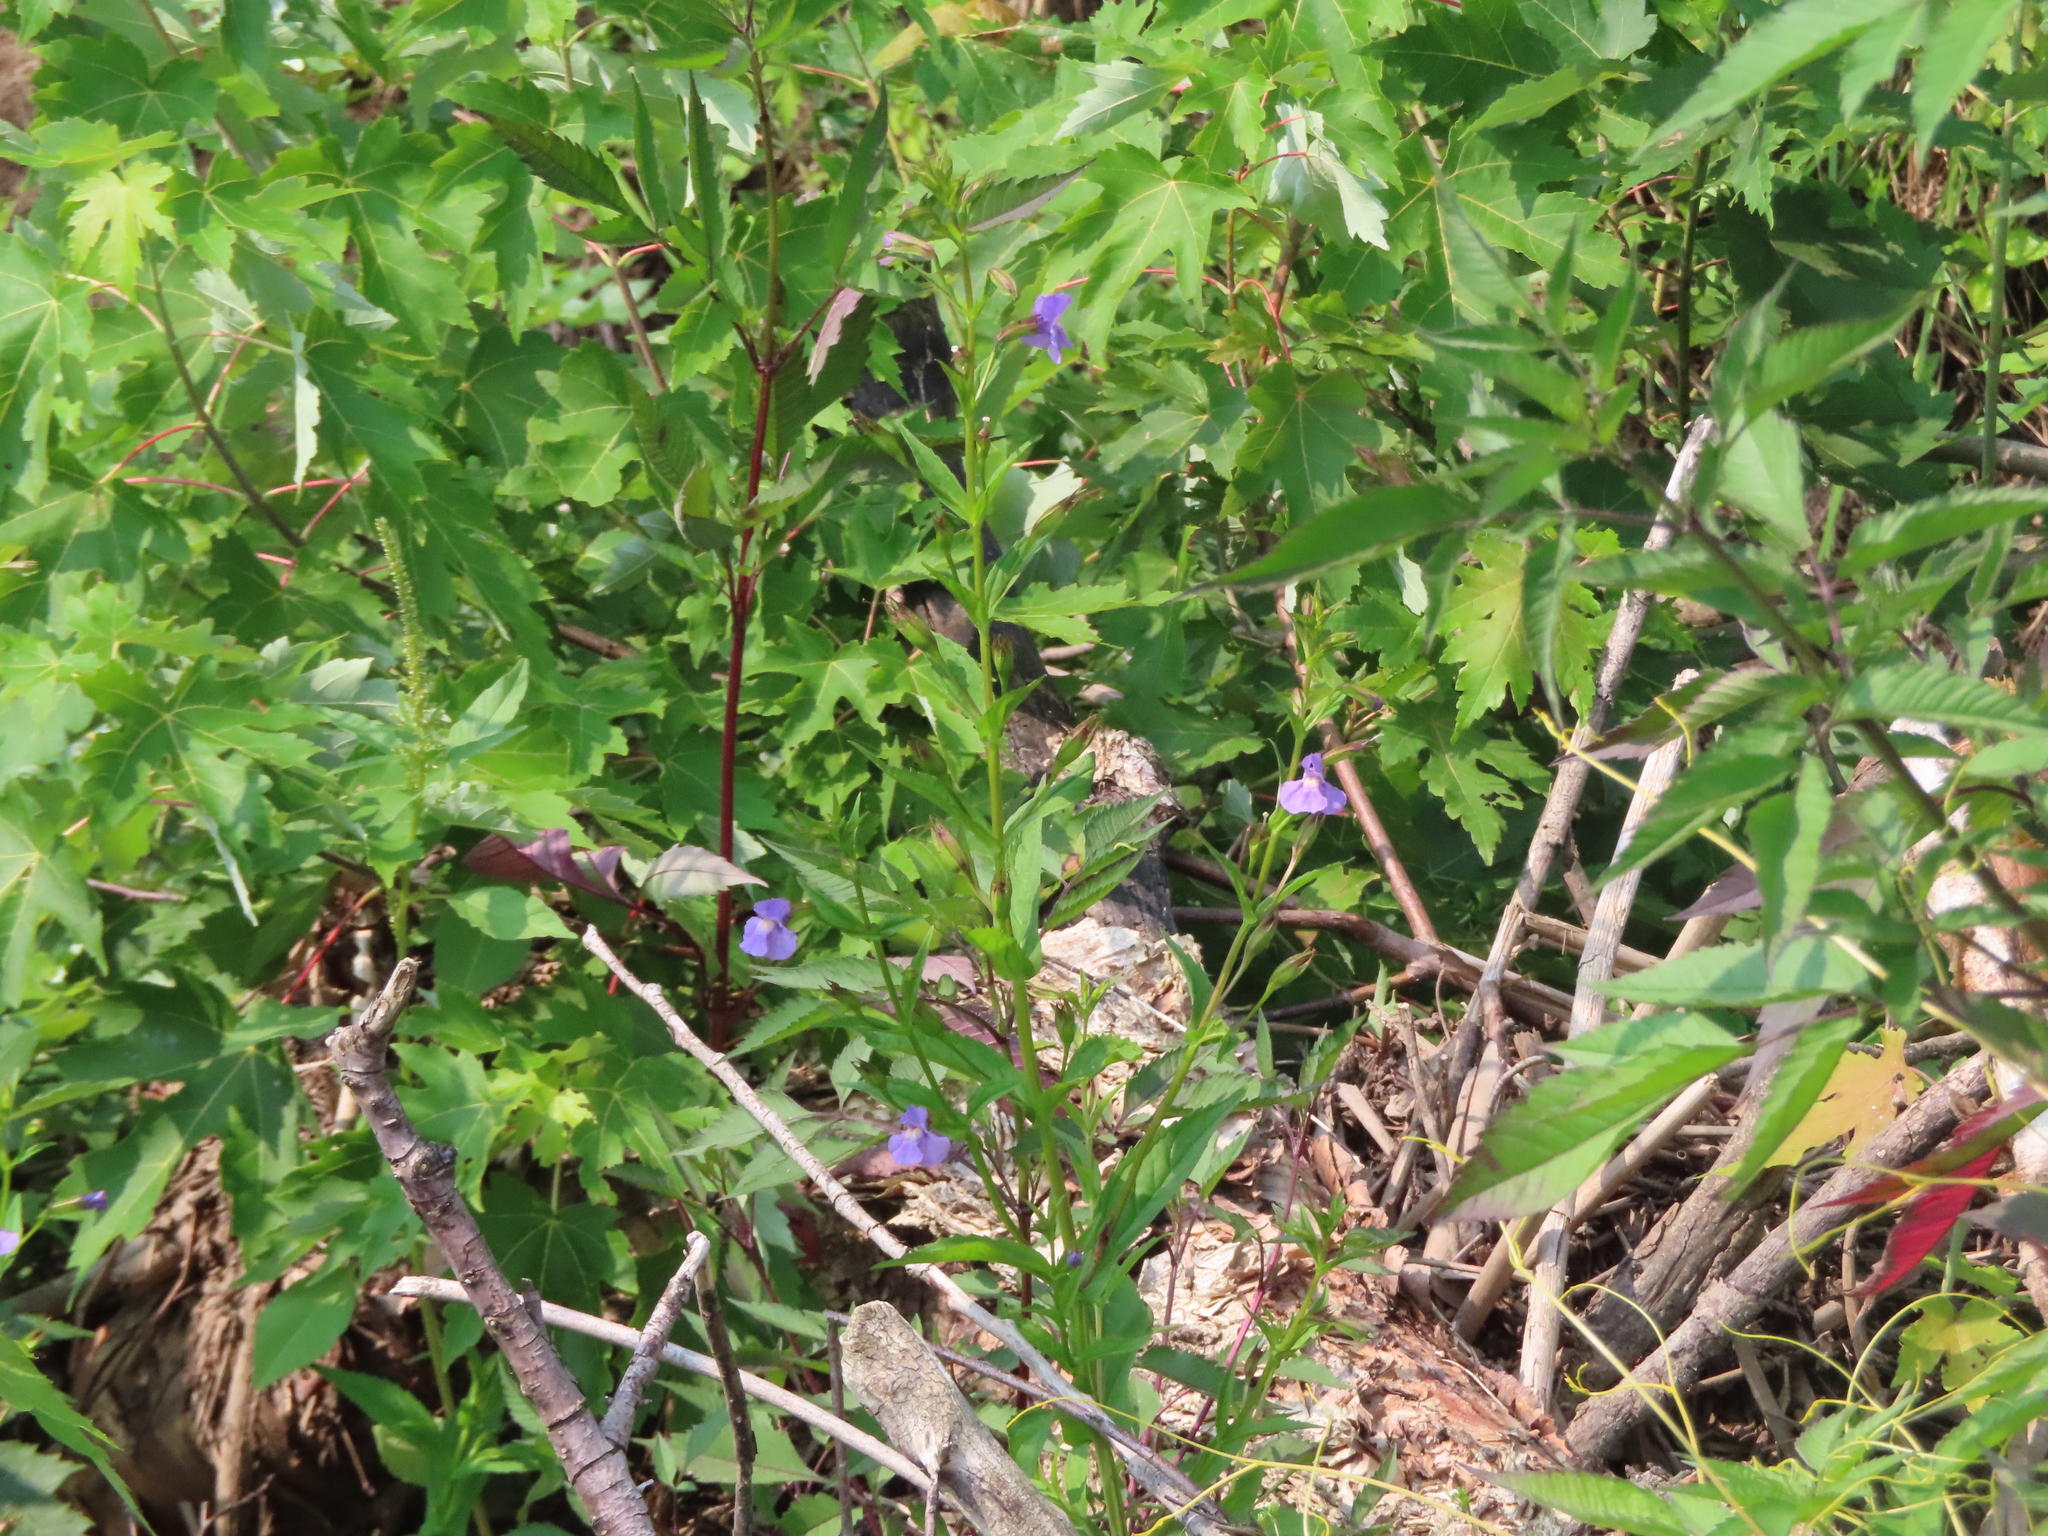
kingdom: Plantae
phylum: Tracheophyta
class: Magnoliopsida
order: Lamiales
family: Phrymaceae
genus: Mimulus
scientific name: Mimulus ringens
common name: Allegheny monkeyflower
